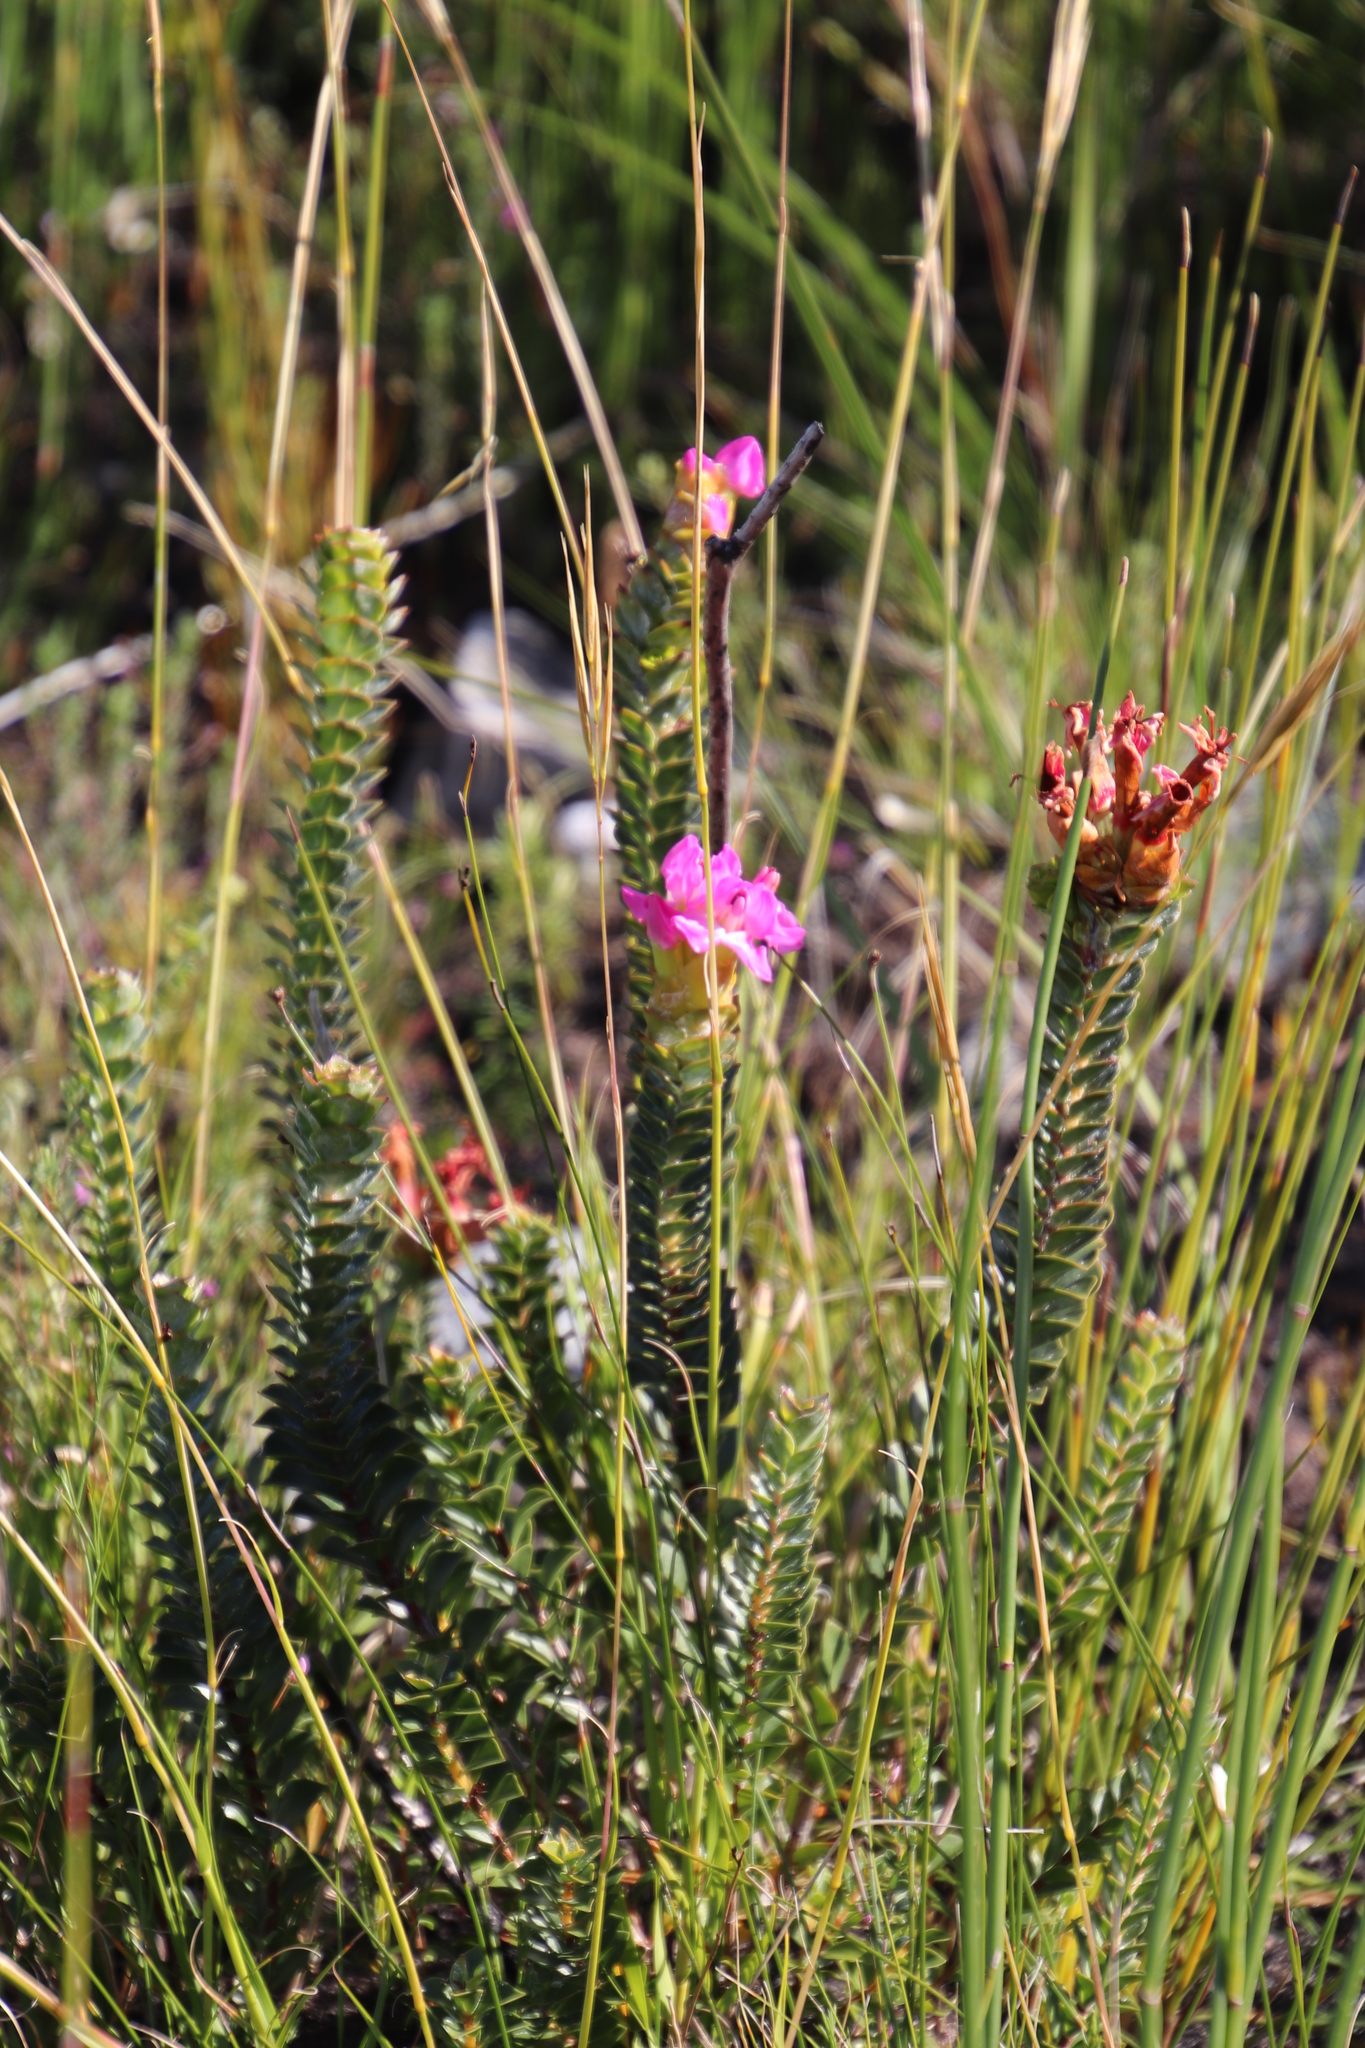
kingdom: Plantae
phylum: Tracheophyta
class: Magnoliopsida
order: Myrtales
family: Penaeaceae
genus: Saltera
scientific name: Saltera sarcocolla
